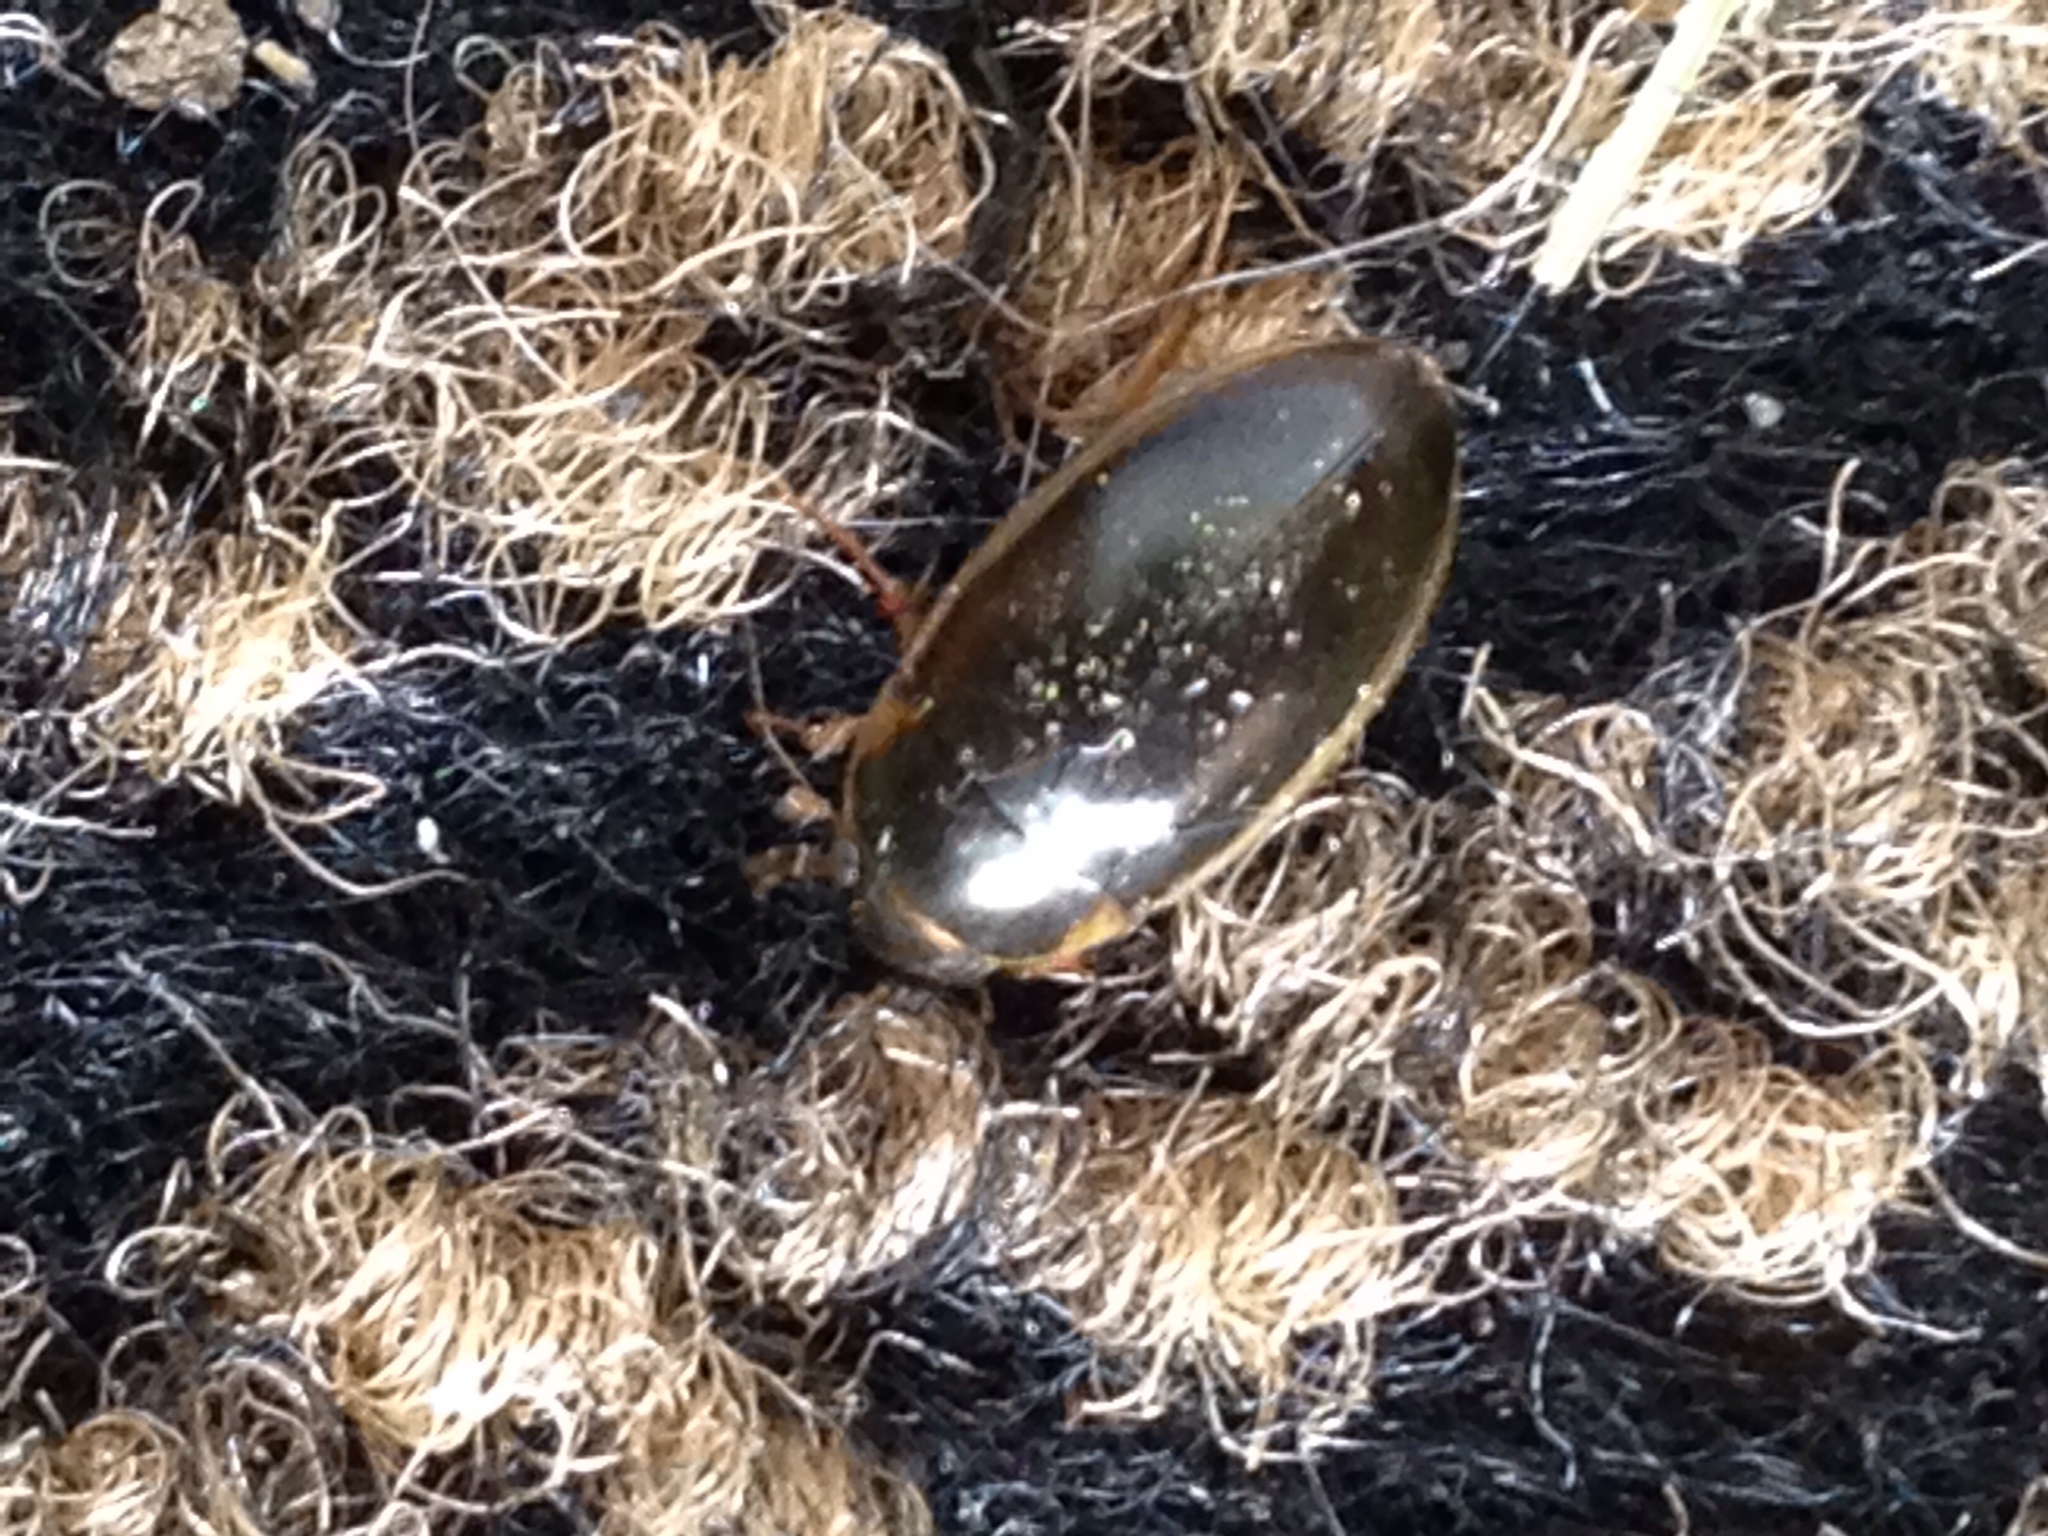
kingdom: Animalia
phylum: Arthropoda
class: Insecta
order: Coleoptera
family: Hydrophilidae
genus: Tropisternus
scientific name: Tropisternus lateralis
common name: Lateral-banded water scavenger beetle
